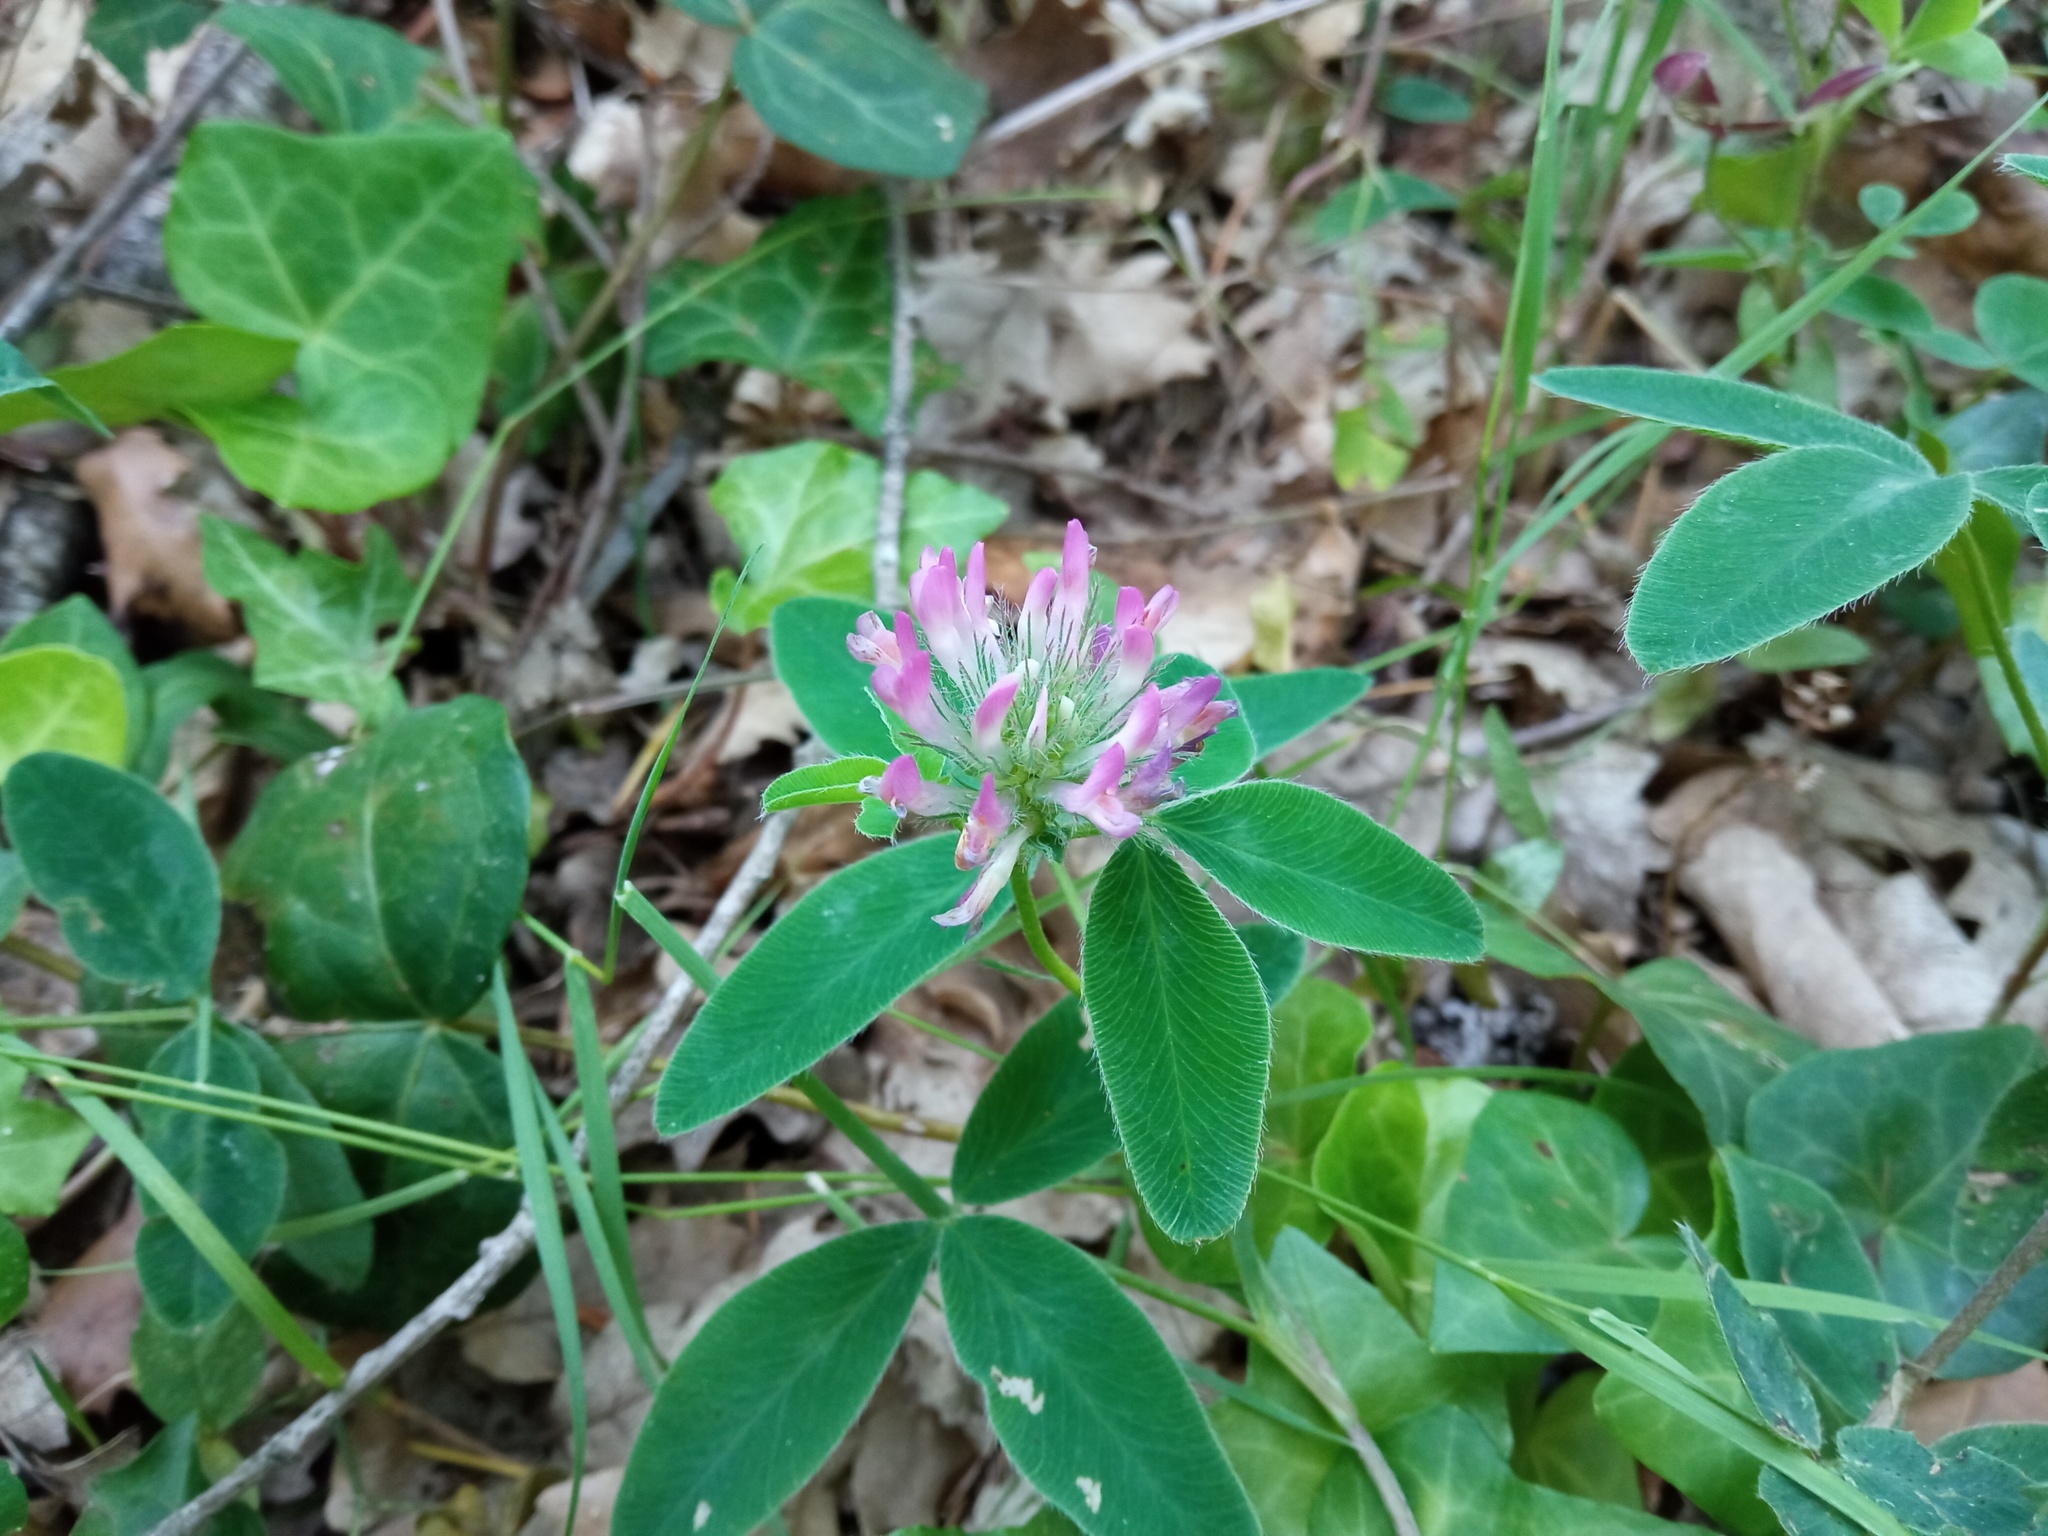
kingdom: Plantae
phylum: Tracheophyta
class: Magnoliopsida
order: Fabales
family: Fabaceae
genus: Trifolium
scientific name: Trifolium medium
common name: Zigzag clover
